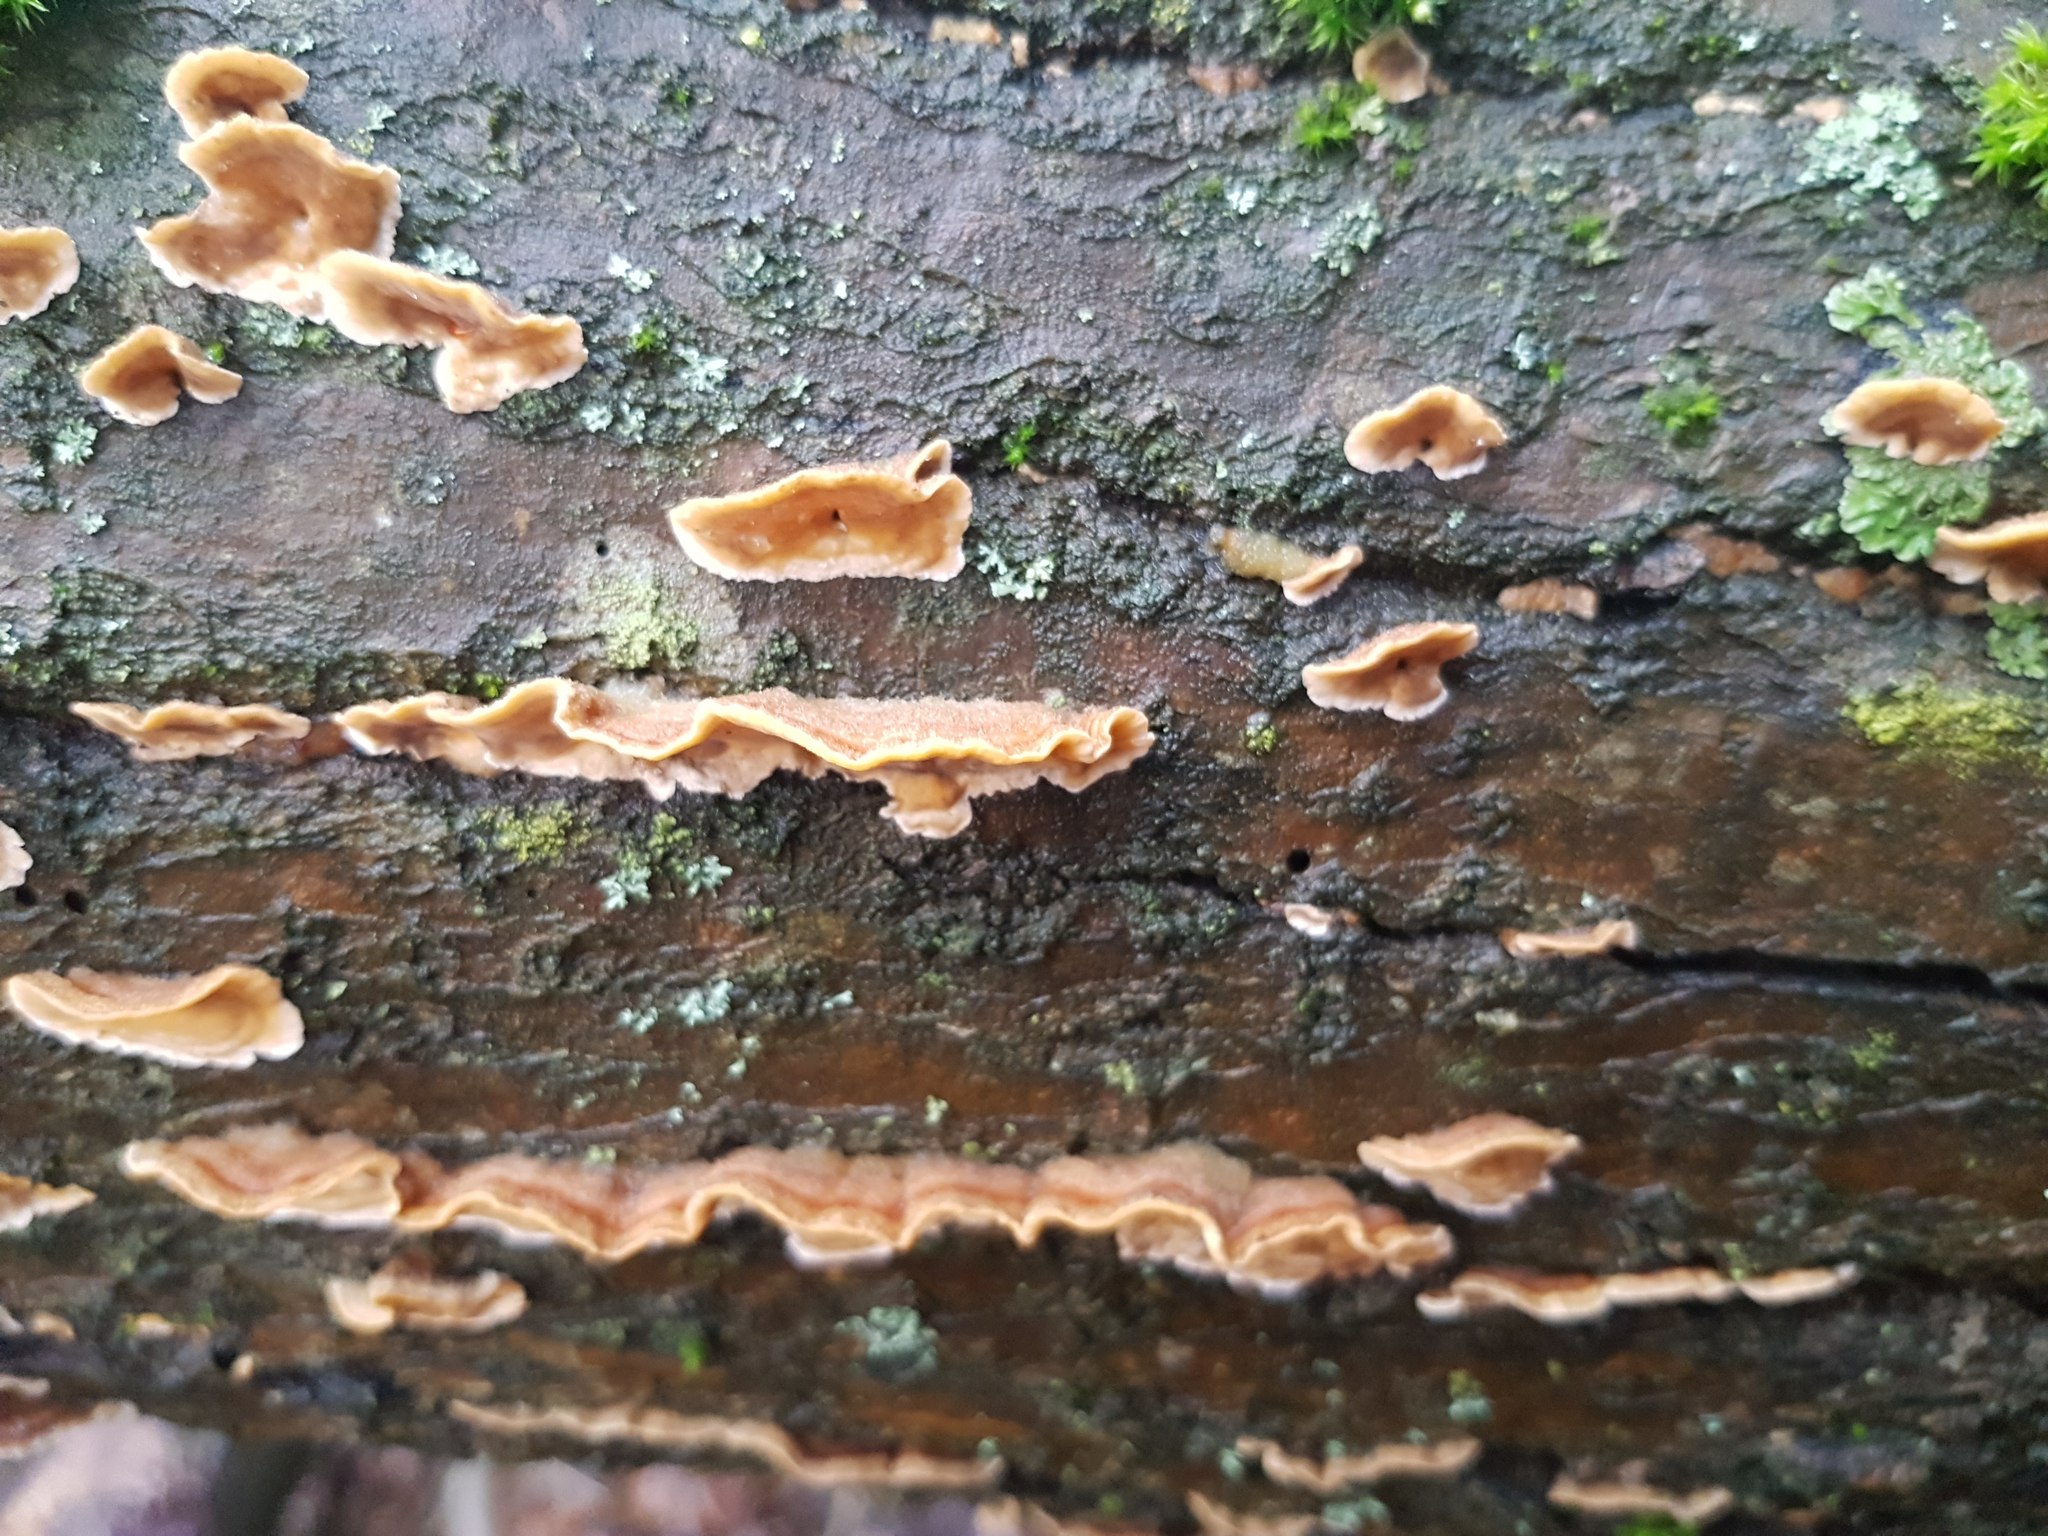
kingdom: Fungi
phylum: Basidiomycota
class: Agaricomycetes
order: Russulales
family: Stereaceae
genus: Stereum
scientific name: Stereum hirsutum
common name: Hairy curtain crust
